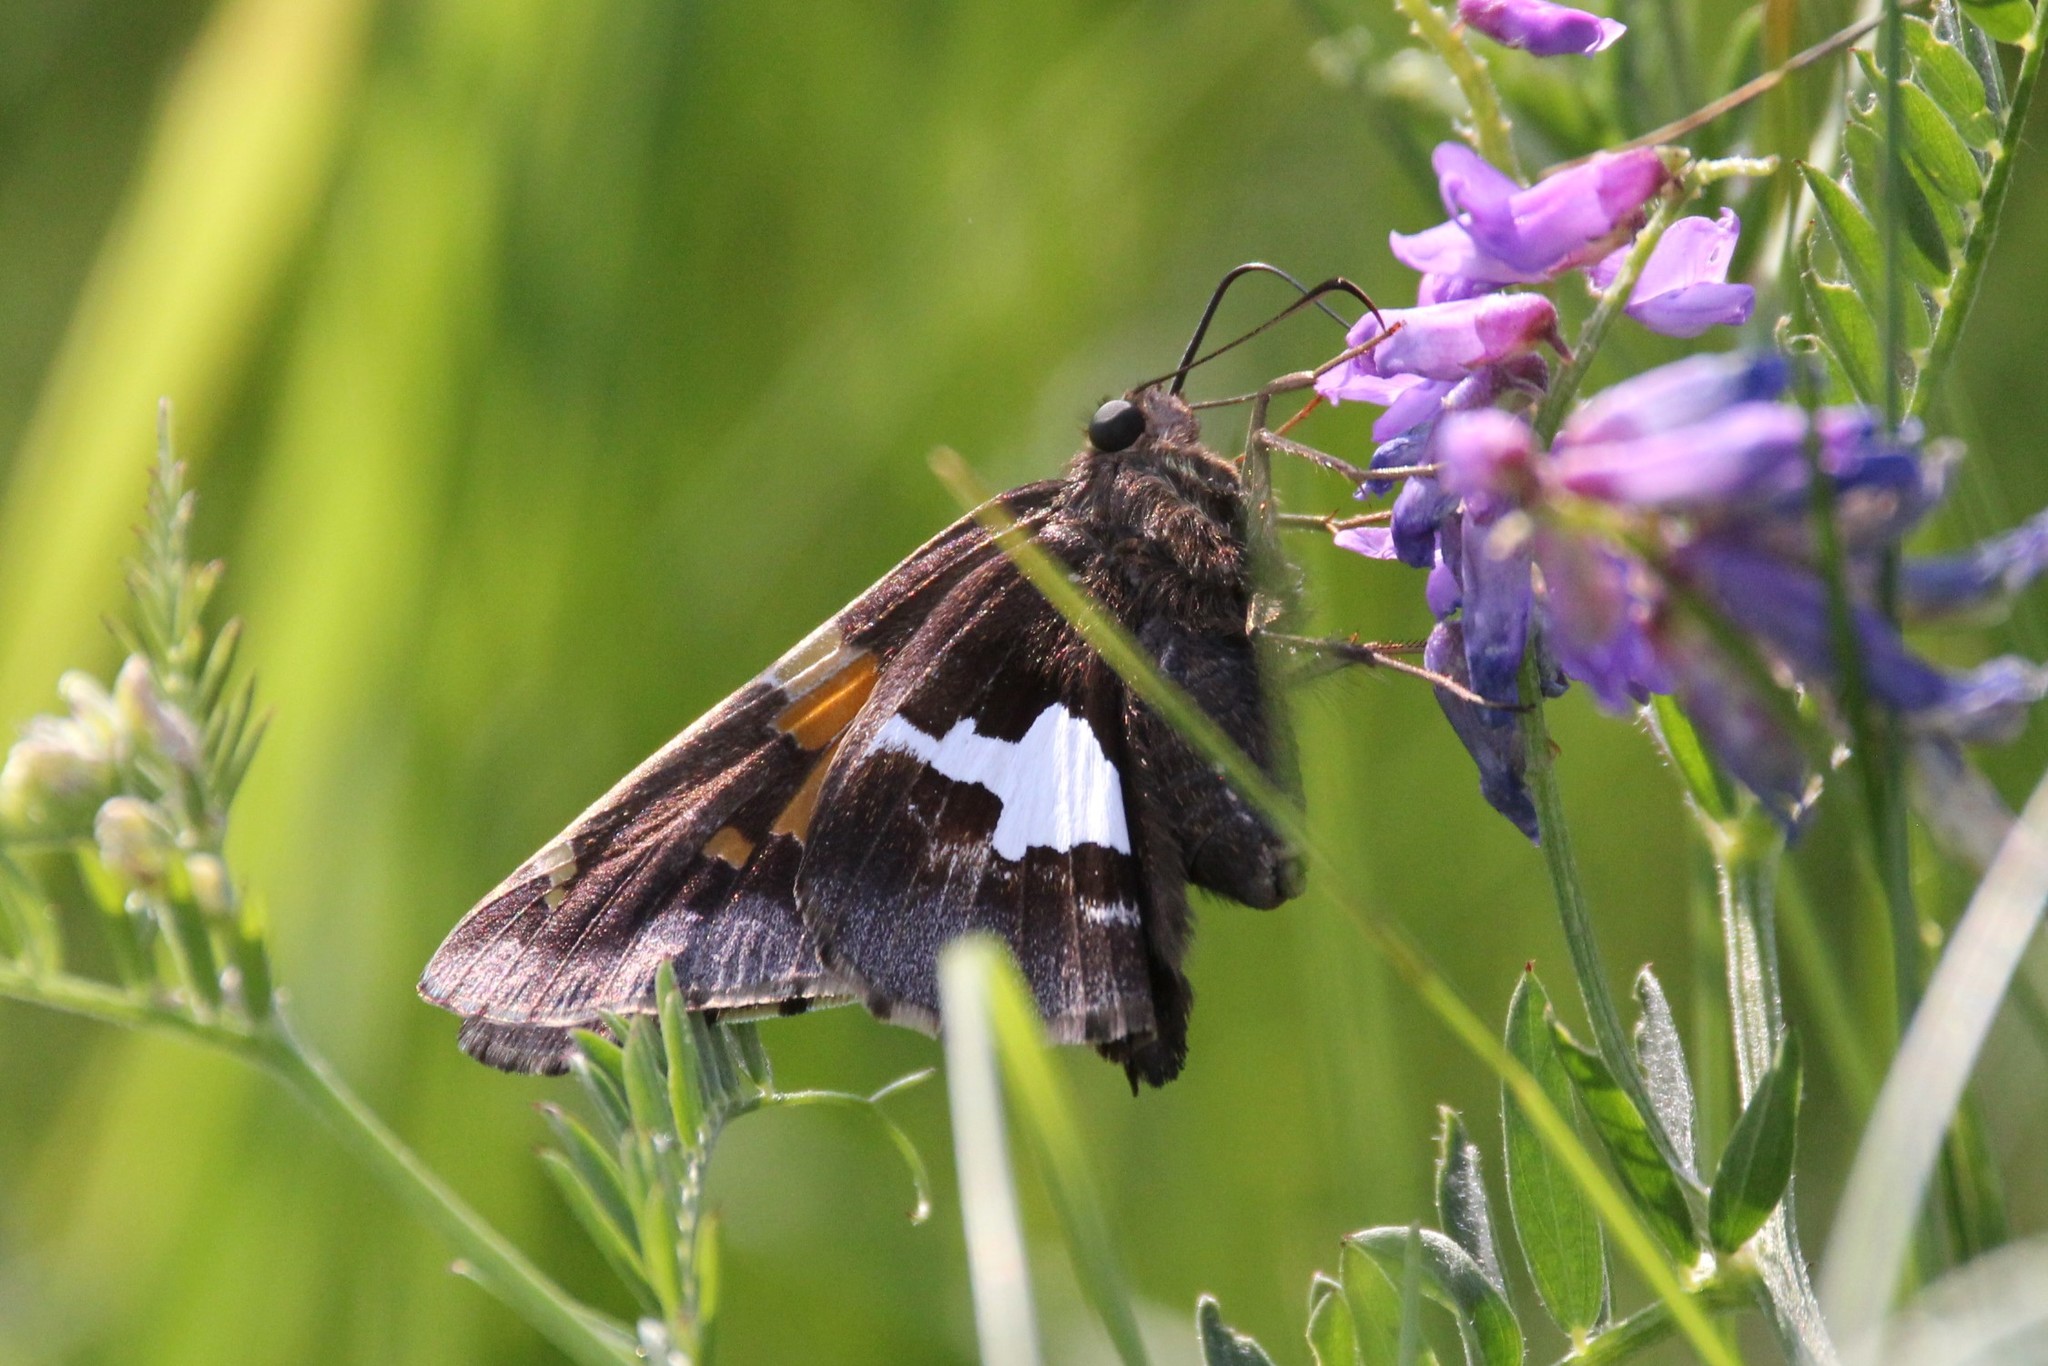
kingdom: Animalia
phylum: Arthropoda
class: Insecta
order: Lepidoptera
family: Hesperiidae
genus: Epargyreus
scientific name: Epargyreus clarus
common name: Silver-spotted skipper
